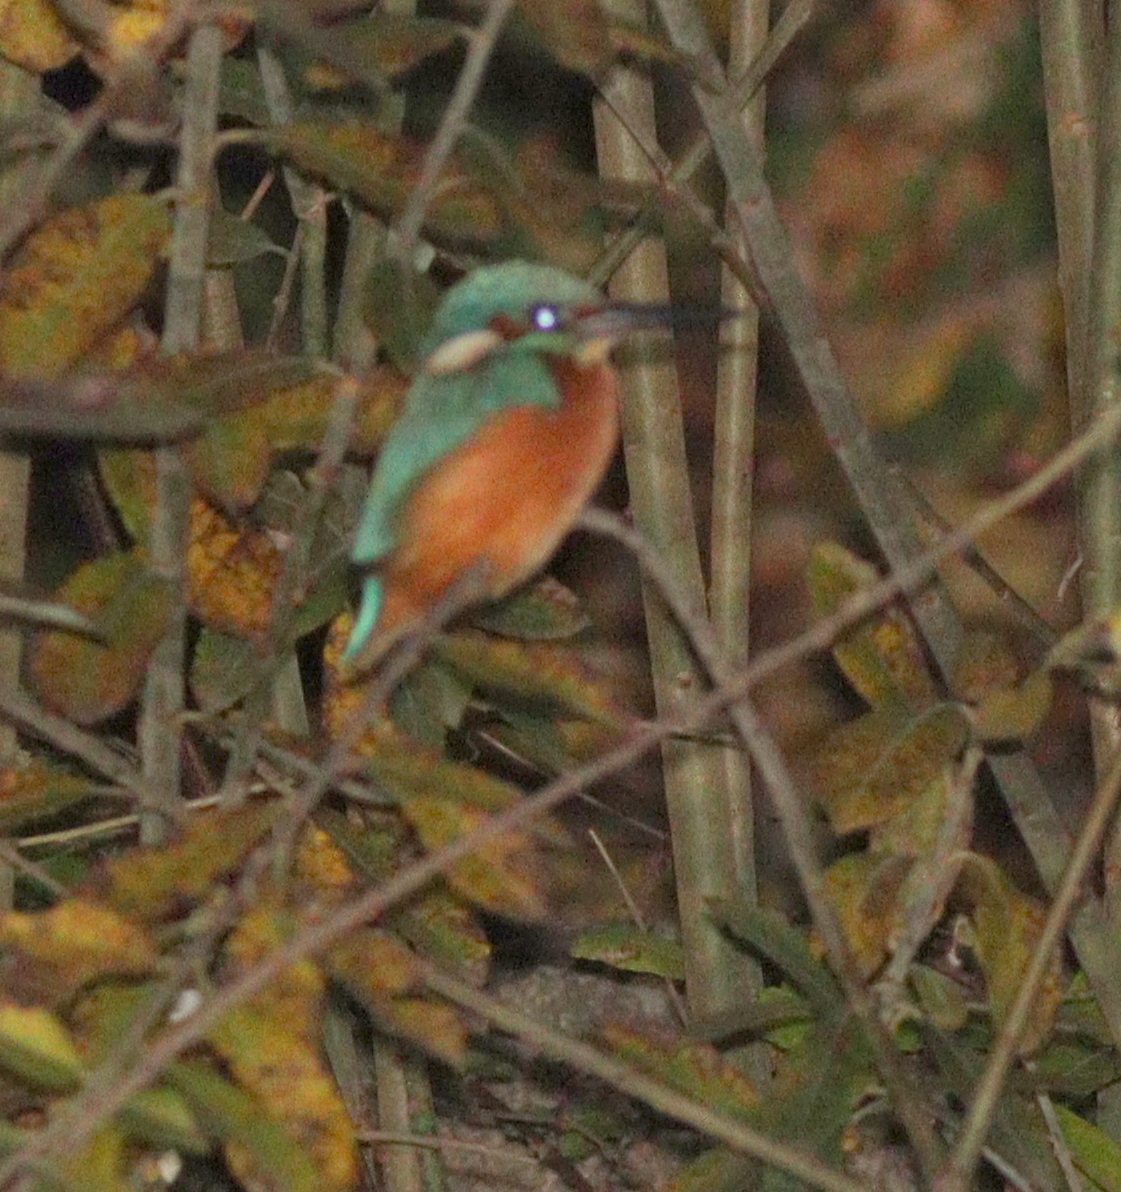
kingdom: Animalia
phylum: Chordata
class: Aves
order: Coraciiformes
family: Alcedinidae
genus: Alcedo
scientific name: Alcedo atthis
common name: Common kingfisher
